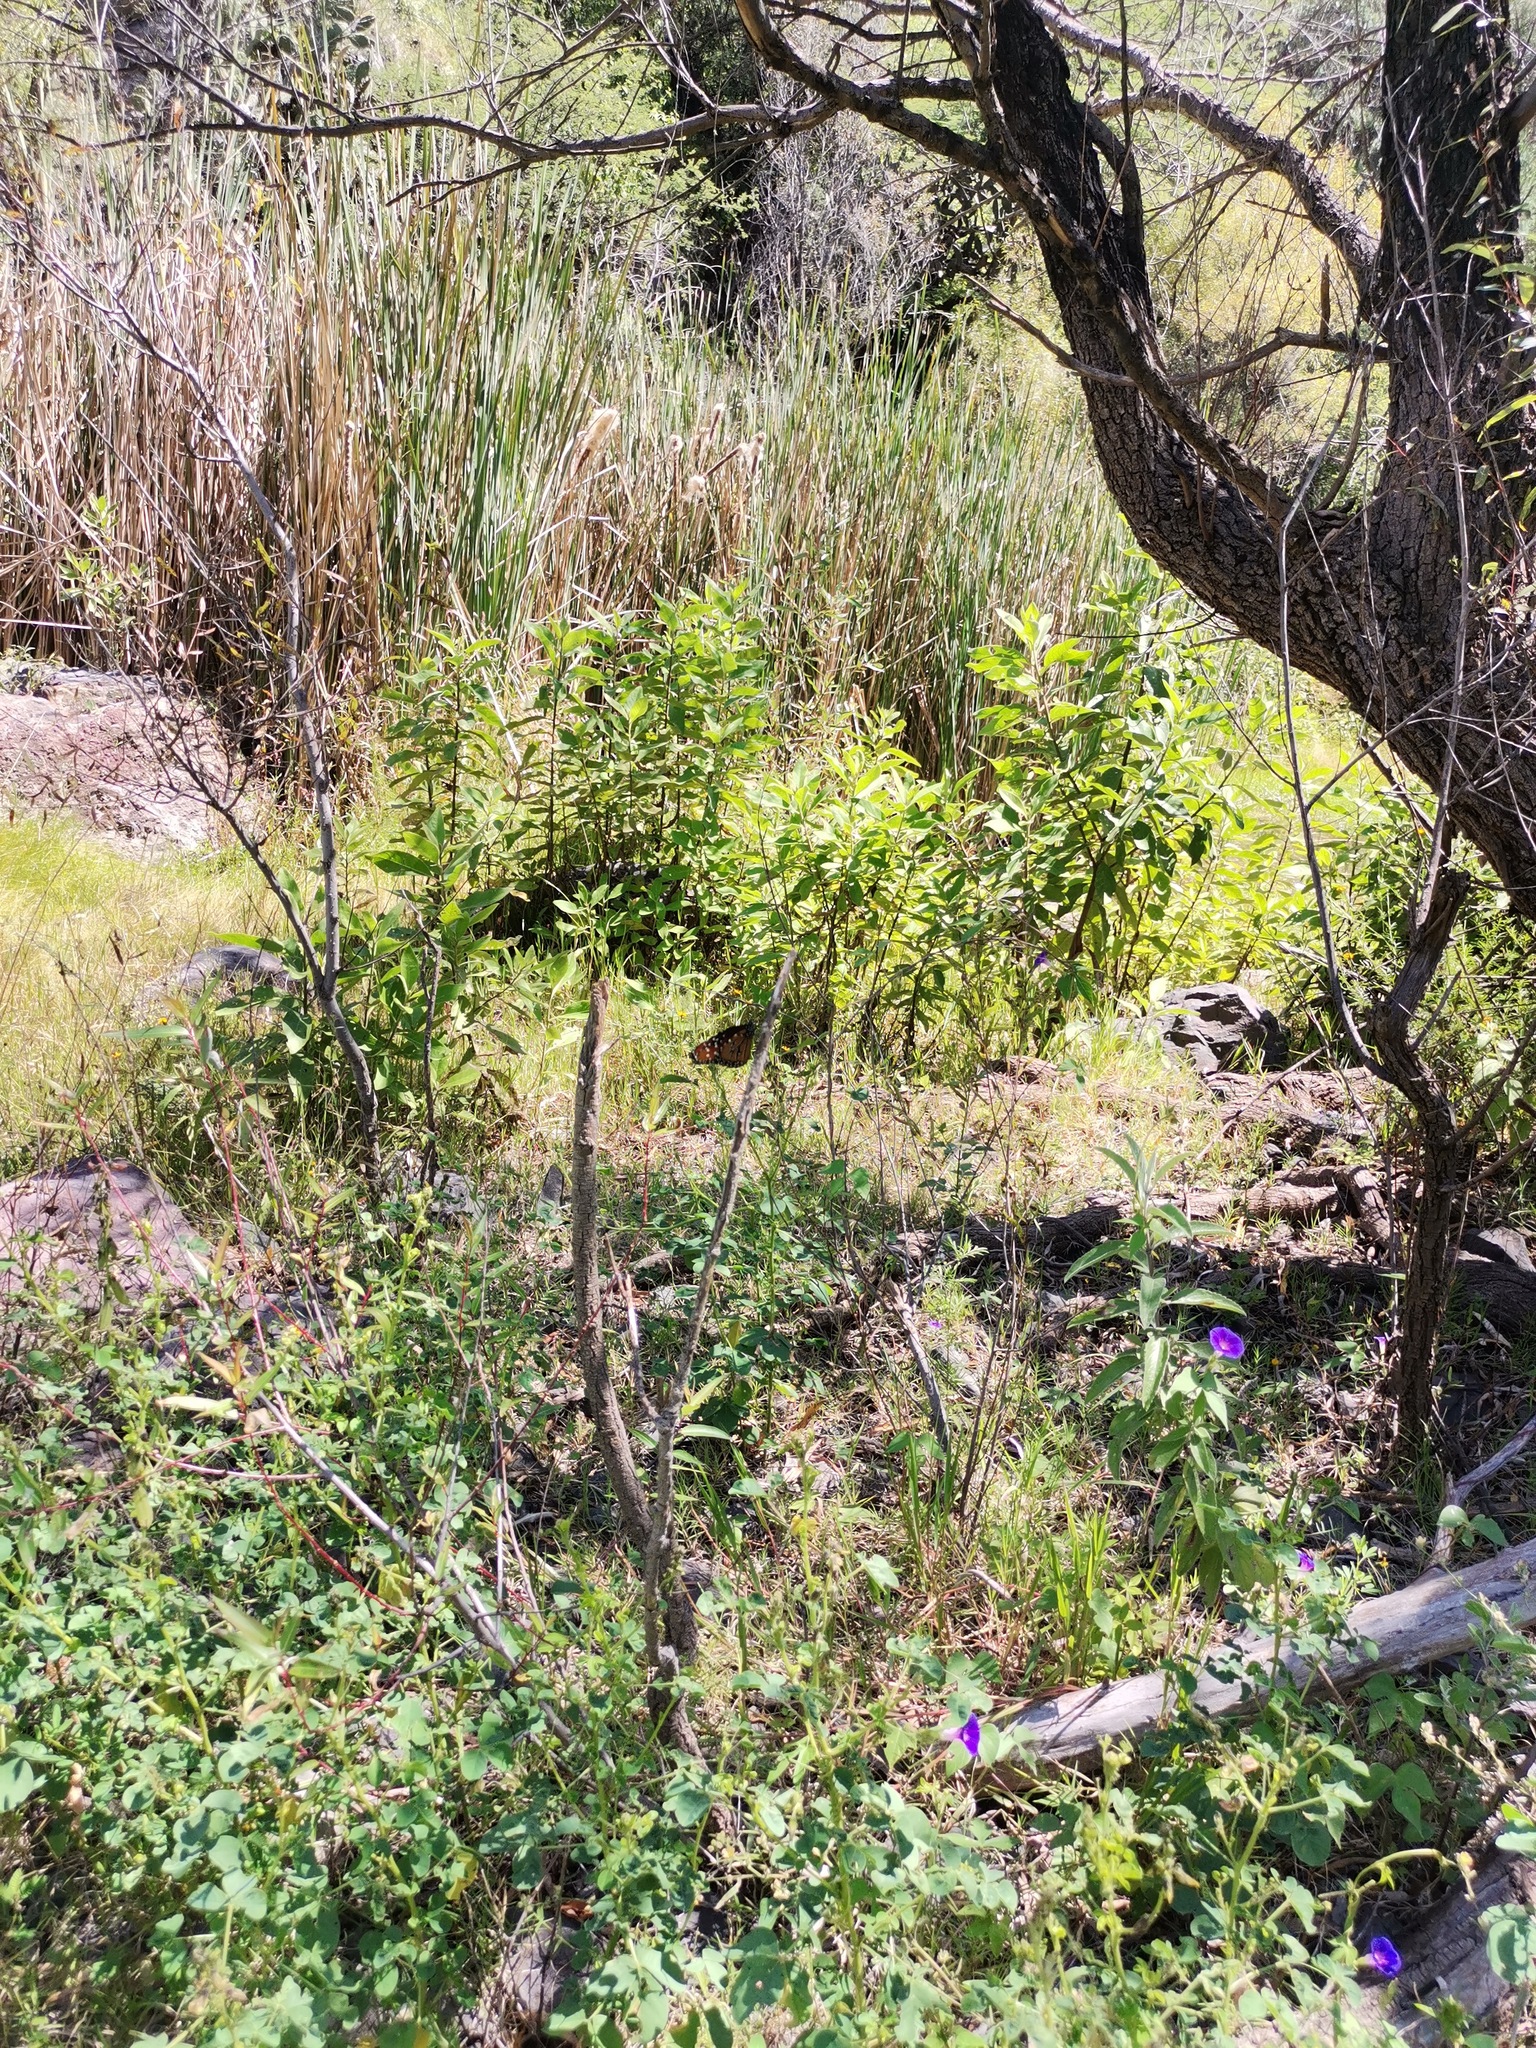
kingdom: Plantae
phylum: Tracheophyta
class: Magnoliopsida
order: Solanales
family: Convolvulaceae
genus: Ipomoea
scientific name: Ipomoea purpurea
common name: Common morning-glory
